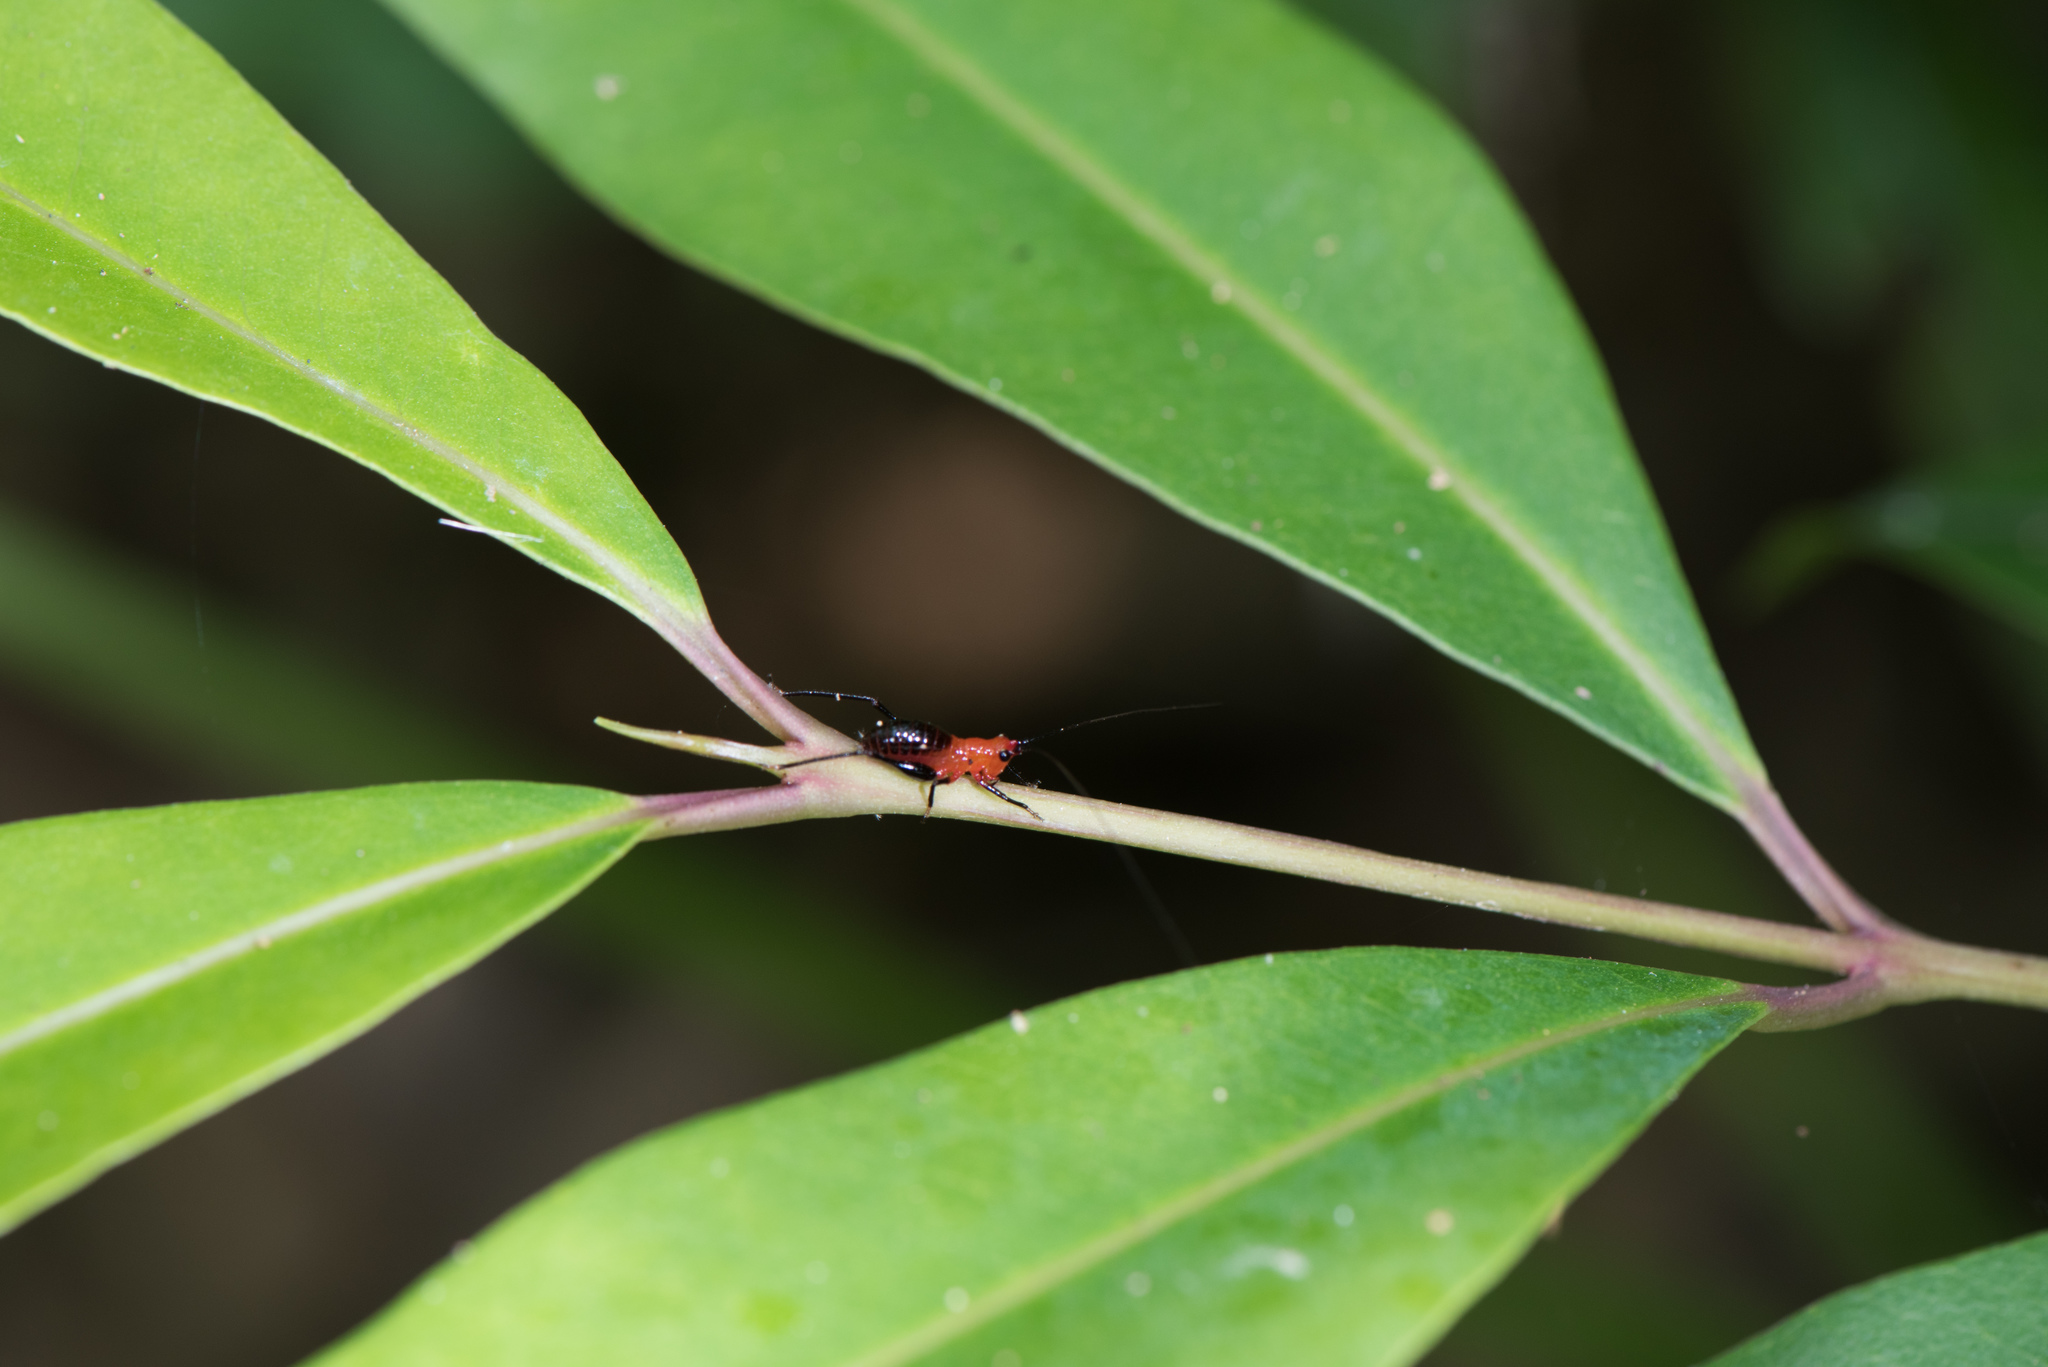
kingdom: Animalia
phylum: Arthropoda
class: Insecta
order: Orthoptera
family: Tettigoniidae
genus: Conocephalus
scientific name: Conocephalus melaenus
